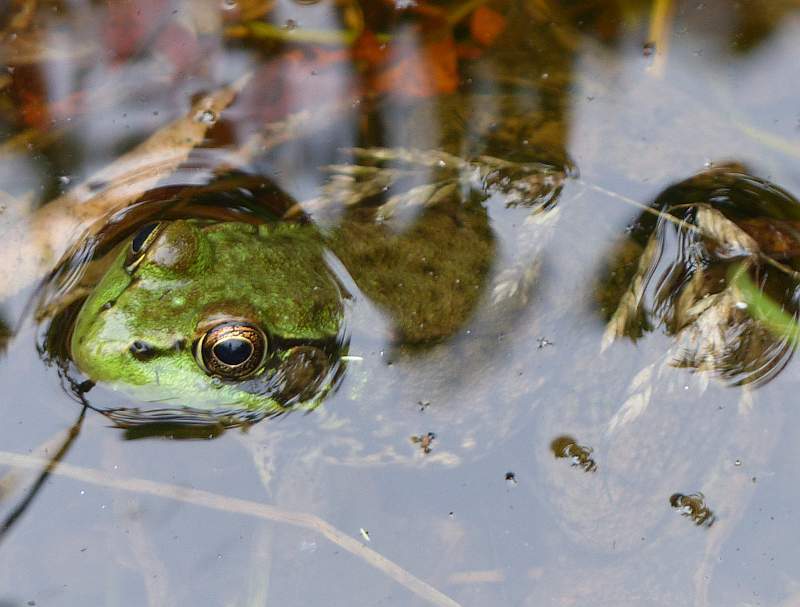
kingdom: Animalia
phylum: Chordata
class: Amphibia
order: Anura
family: Ranidae
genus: Lithobates
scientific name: Lithobates clamitans
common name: Green frog
